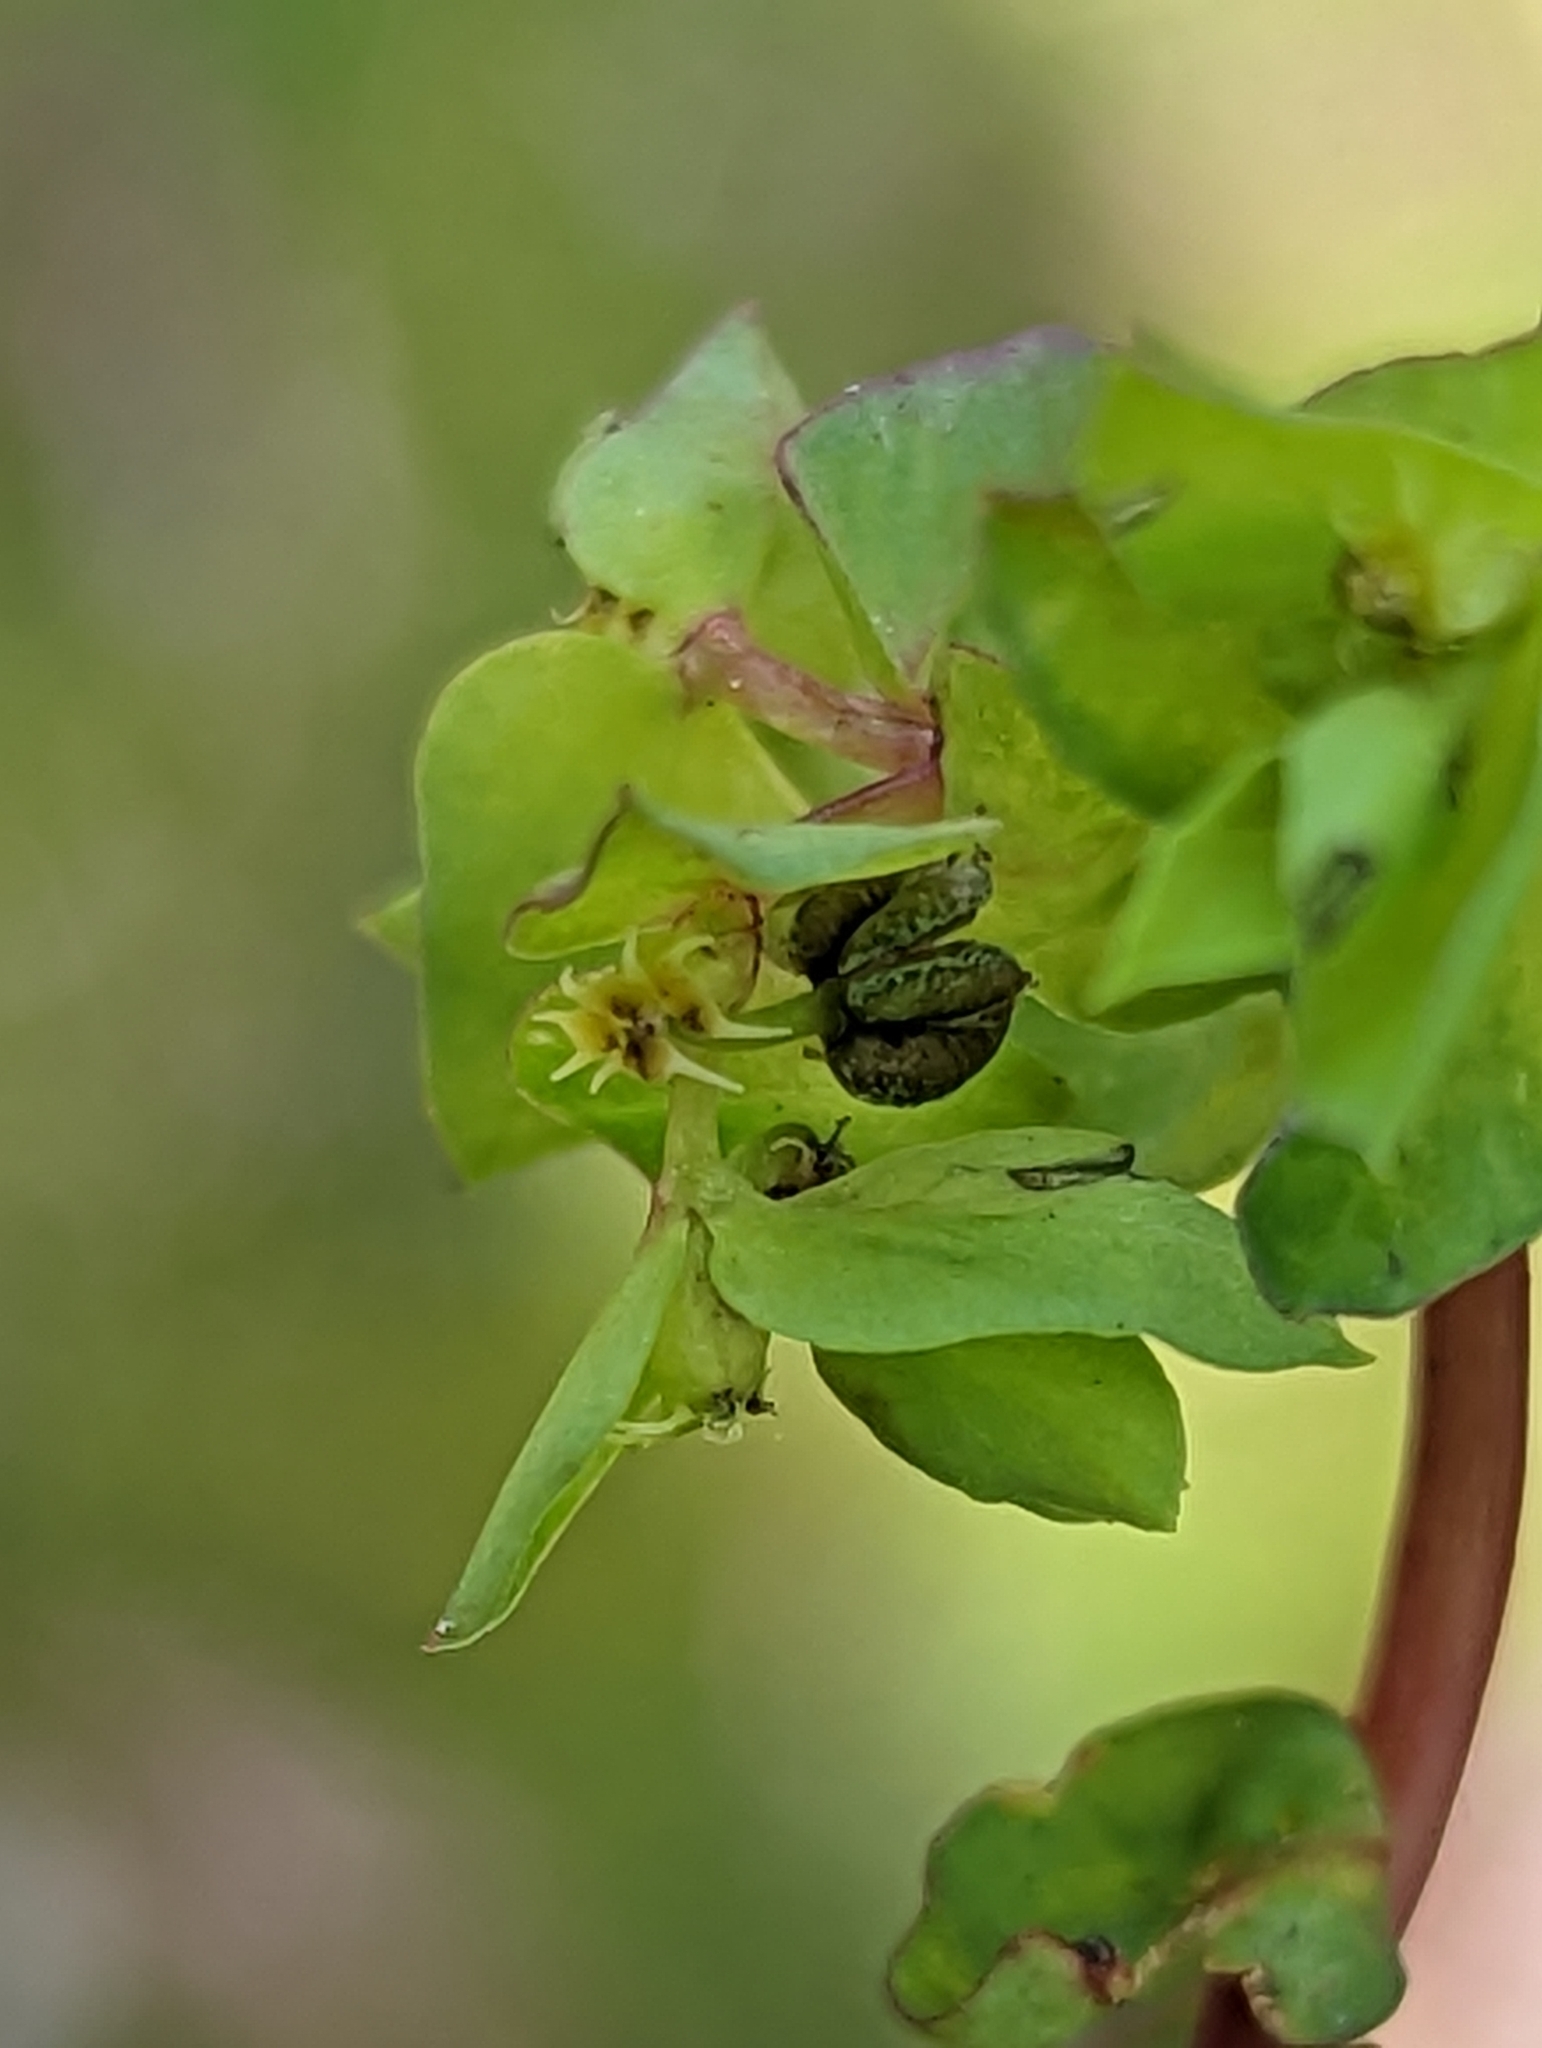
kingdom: Plantae
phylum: Tracheophyta
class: Magnoliopsida
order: Malpighiales
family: Euphorbiaceae
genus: Euphorbia
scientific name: Euphorbia peplus
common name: Petty spurge
